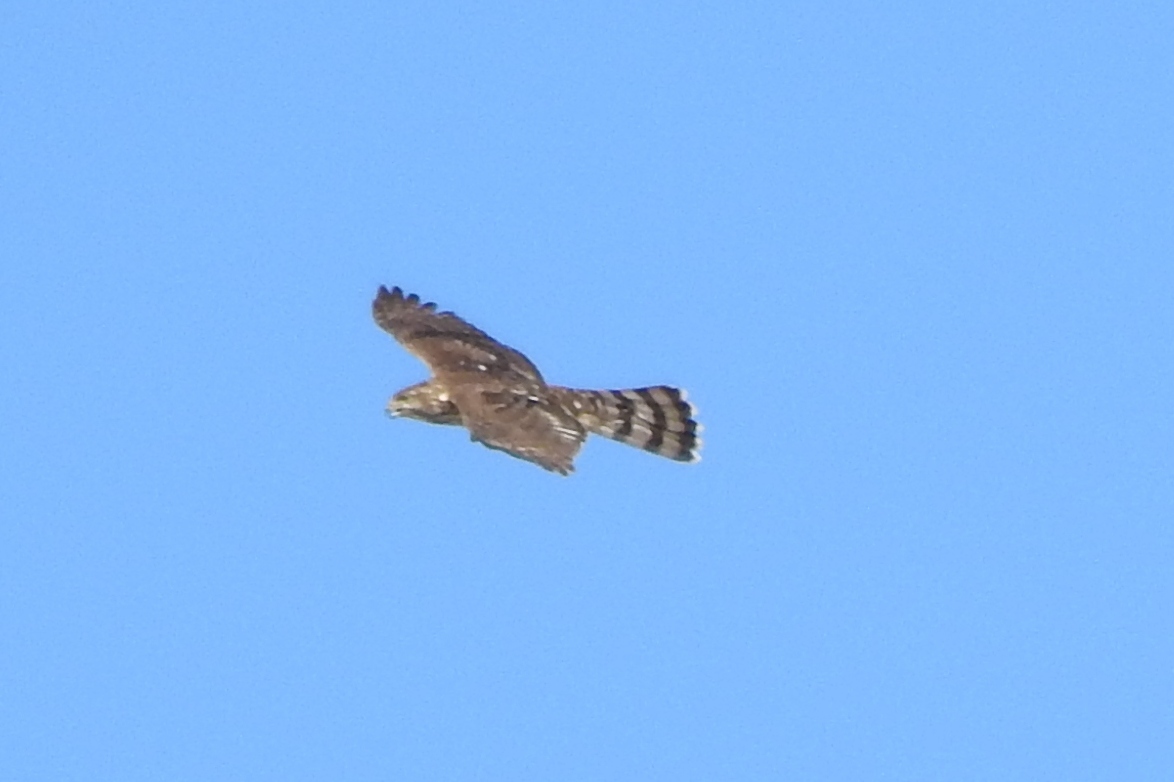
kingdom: Animalia
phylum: Chordata
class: Aves
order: Accipitriformes
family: Accipitridae
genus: Accipiter
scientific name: Accipiter cooperii
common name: Cooper's hawk
